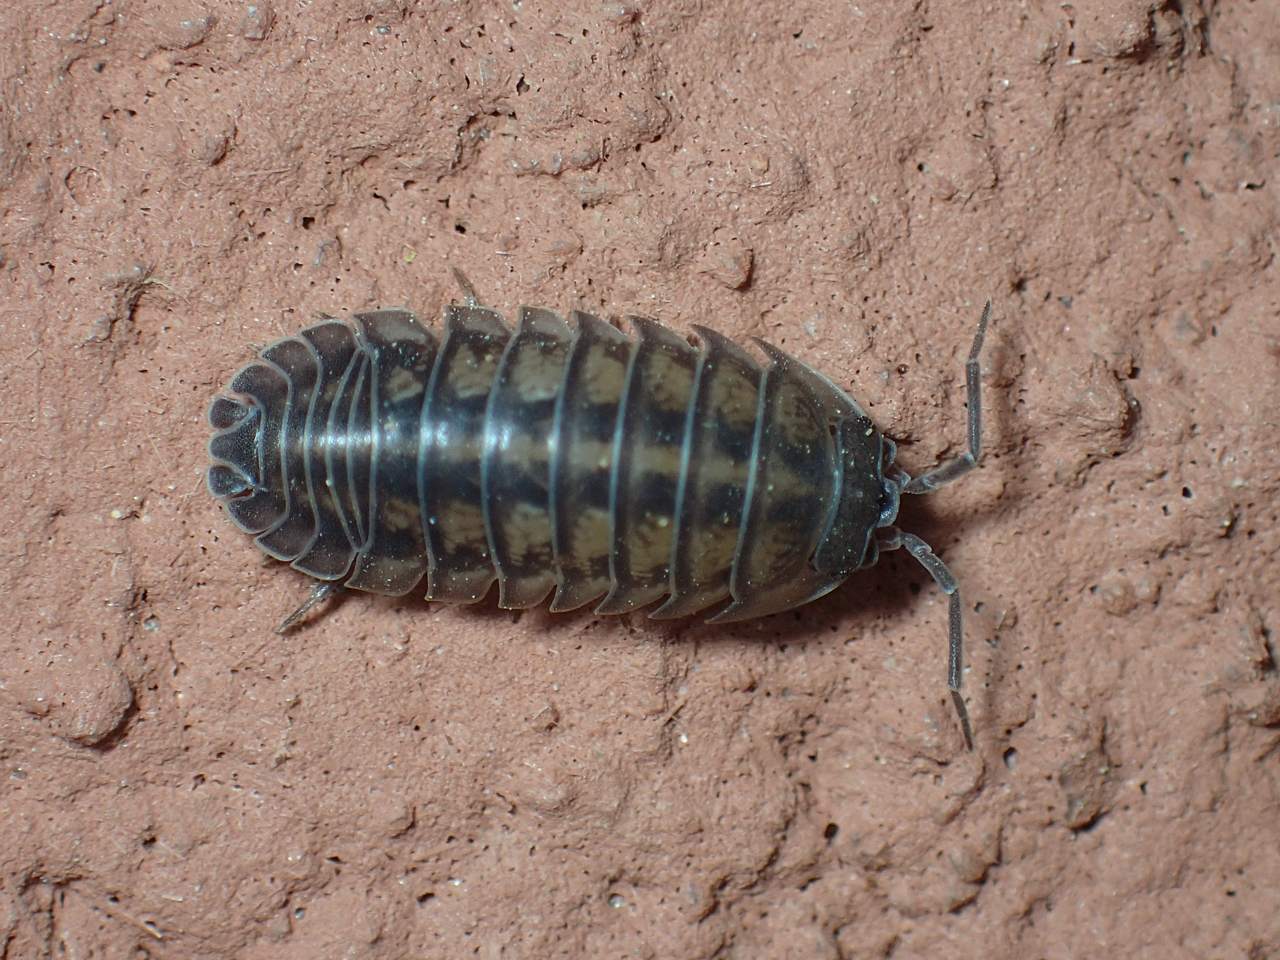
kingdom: Animalia
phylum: Arthropoda
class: Malacostraca
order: Isopoda
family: Armadillidiidae
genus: Armadillidium
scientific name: Armadillidium nasatum
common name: Isopod
